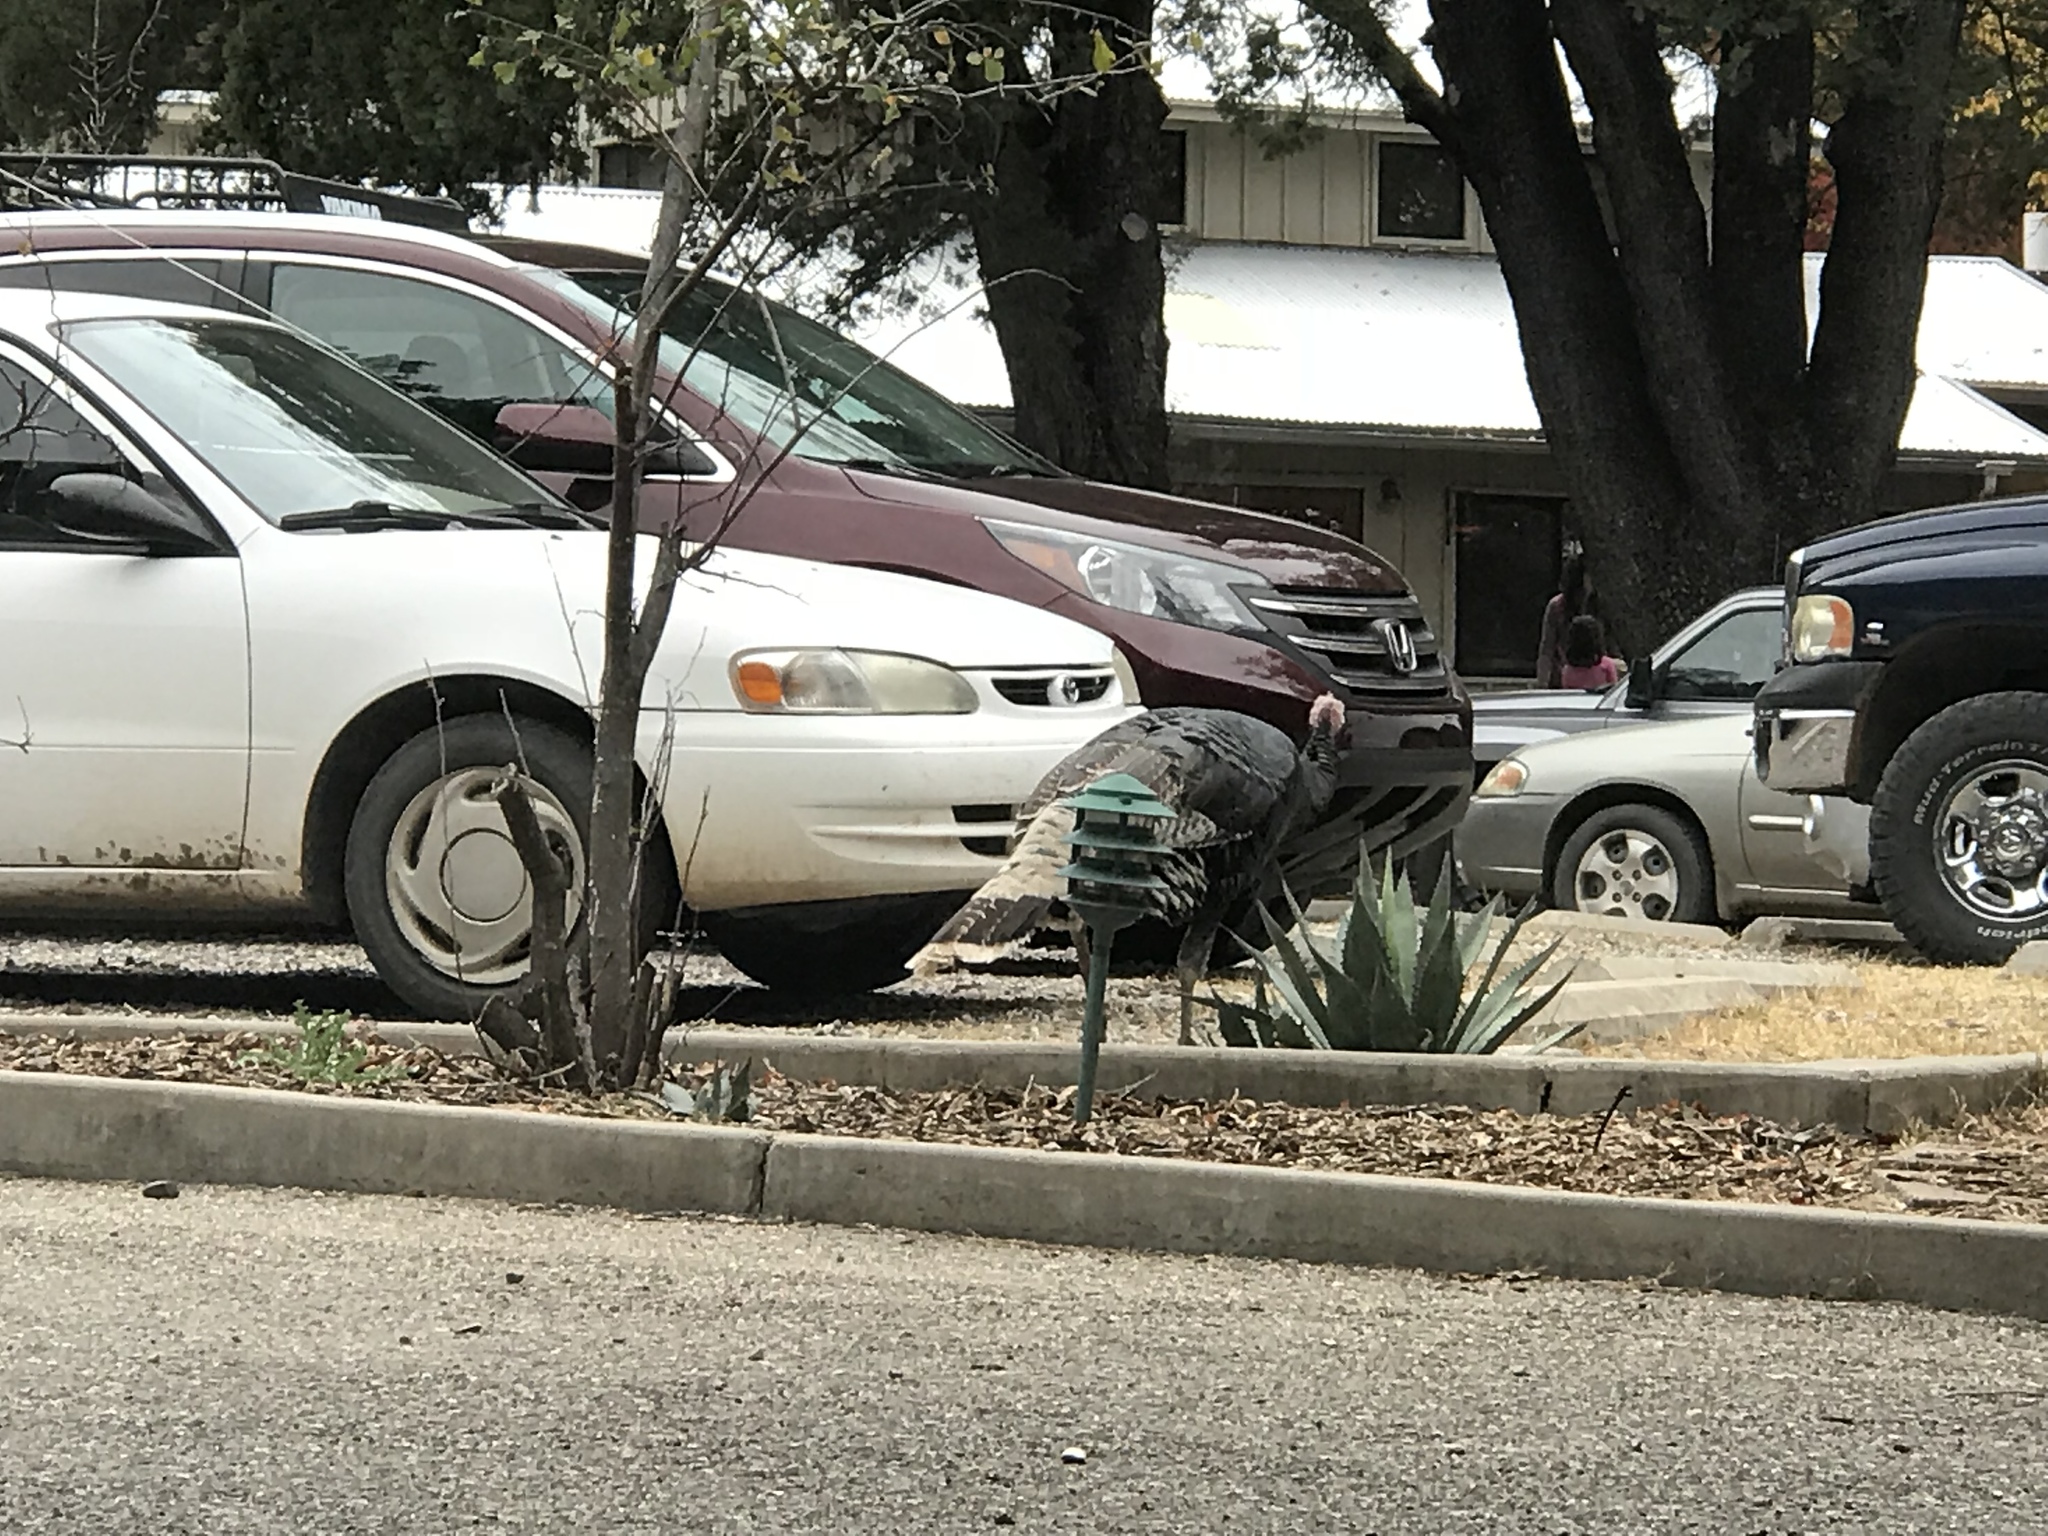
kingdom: Animalia
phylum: Chordata
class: Aves
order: Galliformes
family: Phasianidae
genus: Meleagris
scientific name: Meleagris gallopavo
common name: Wild turkey
